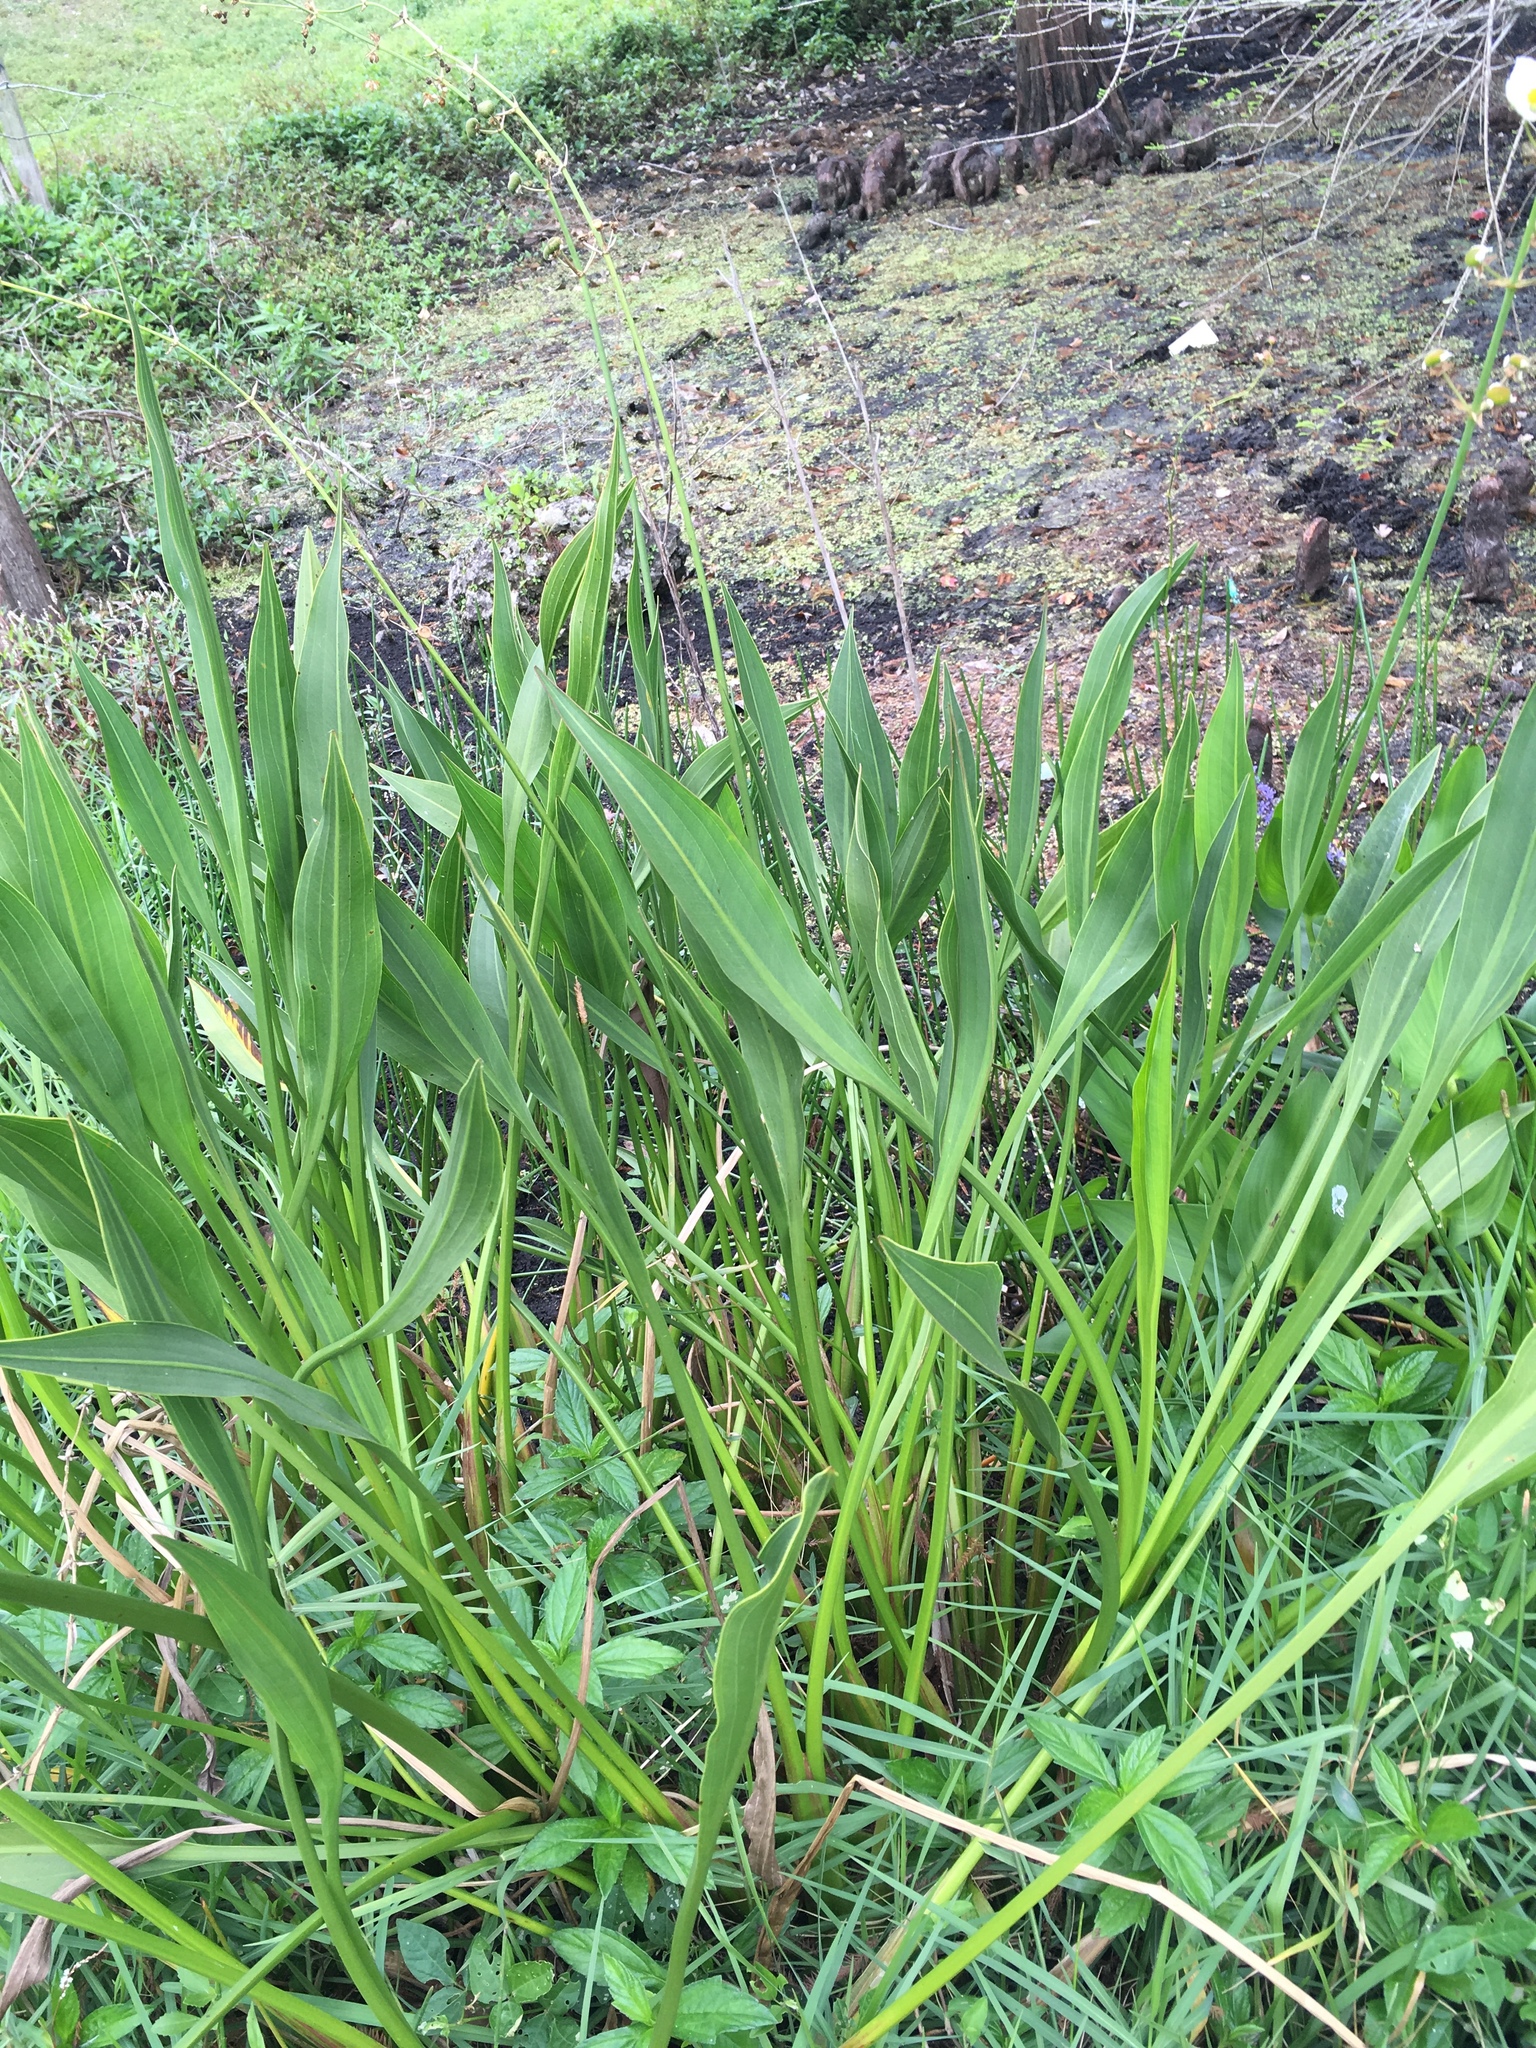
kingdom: Plantae
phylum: Tracheophyta
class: Liliopsida
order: Alismatales
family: Alismataceae
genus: Sagittaria
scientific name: Sagittaria lancifolia
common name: Lance-leaf arrowhead
